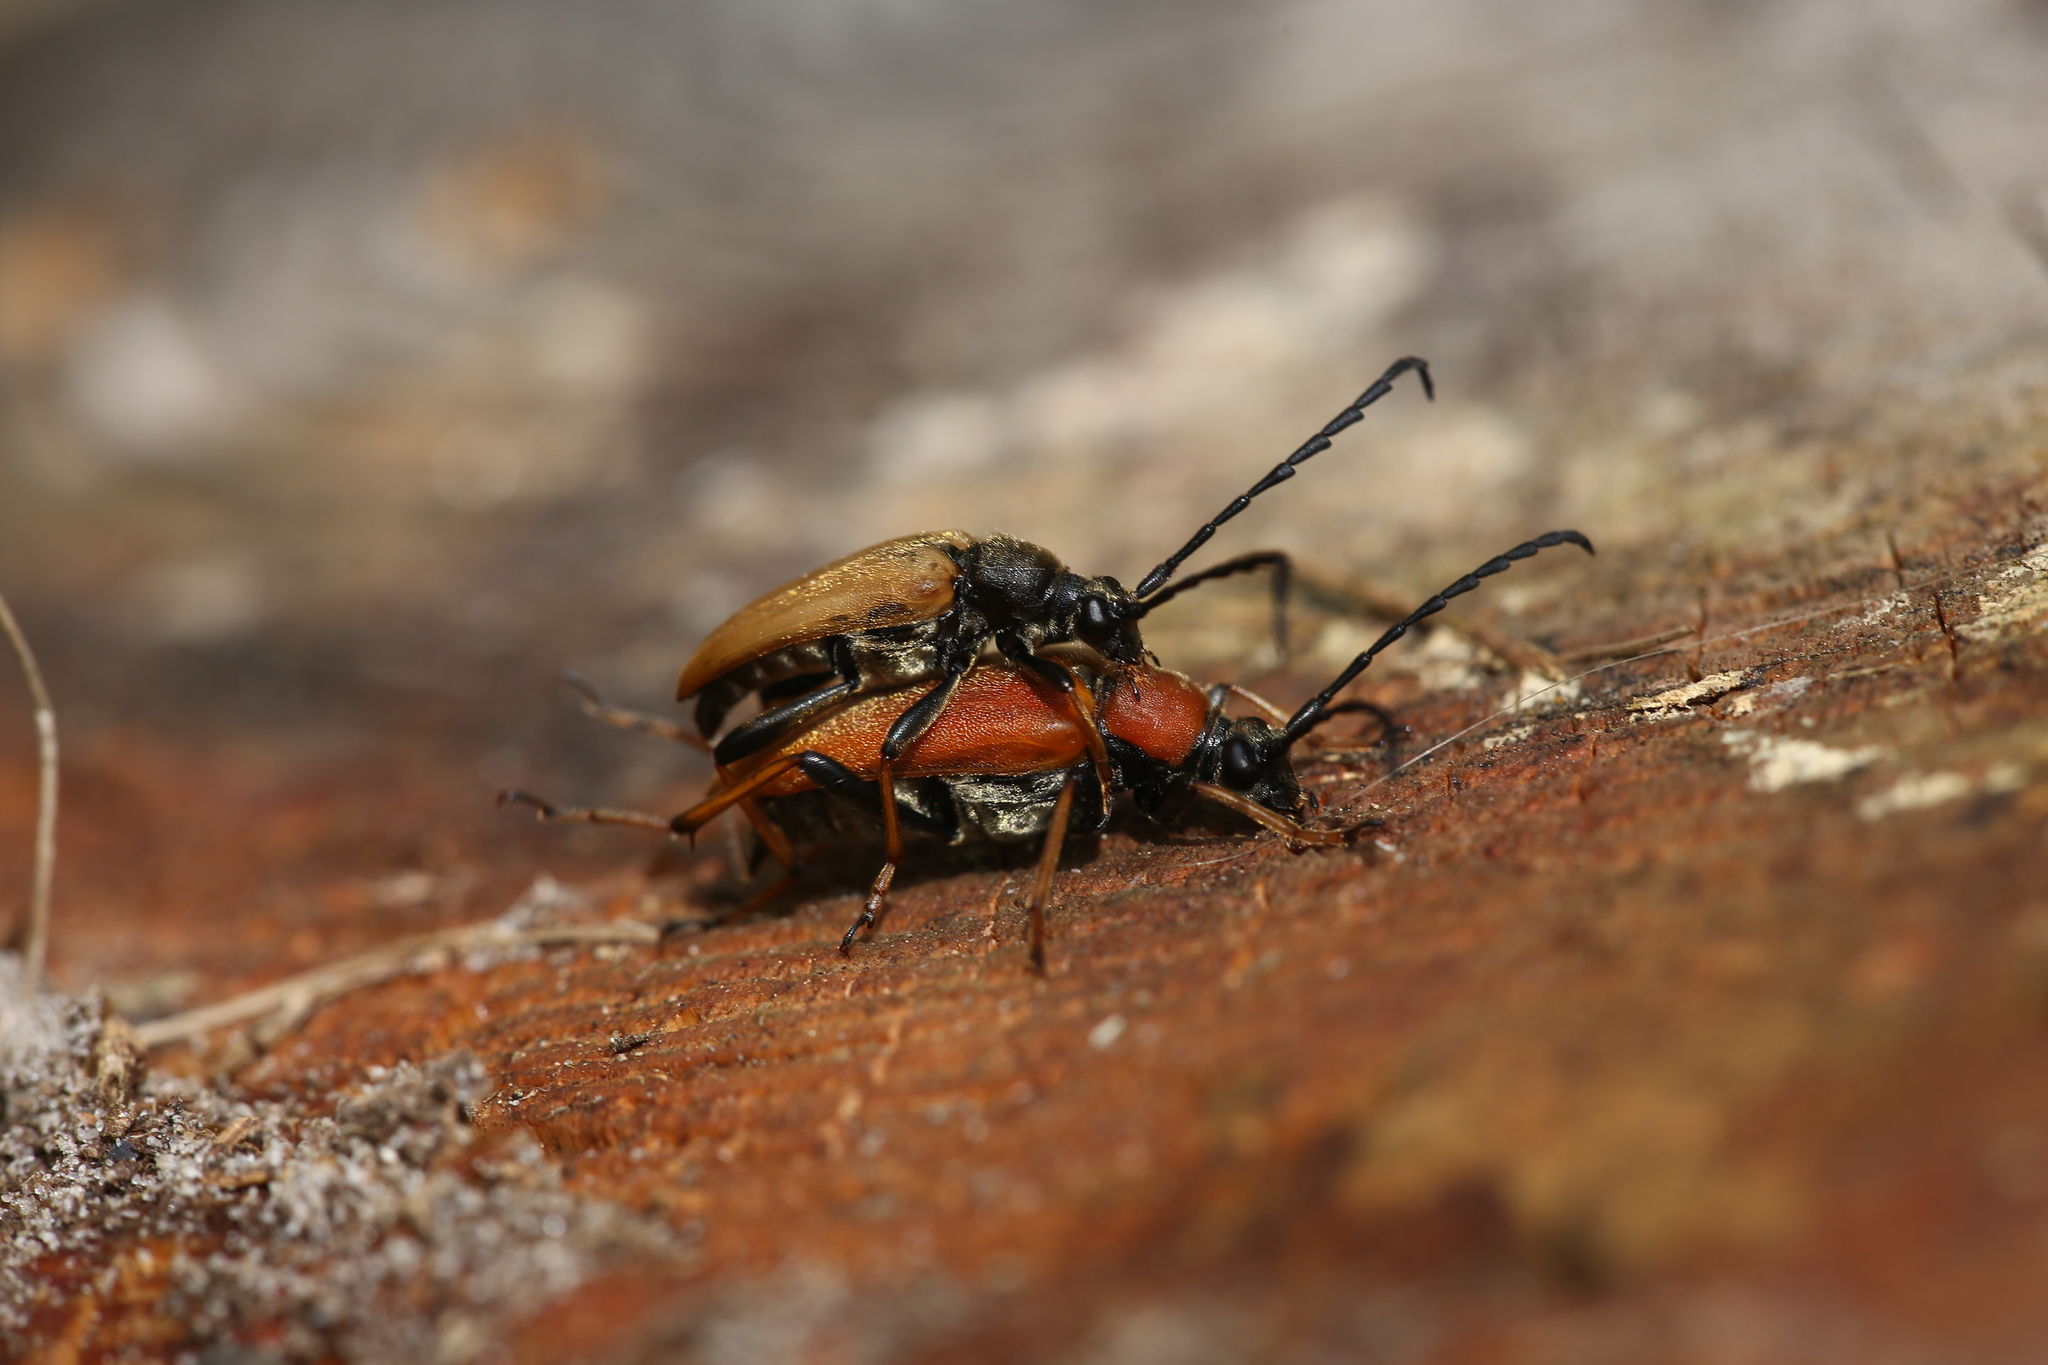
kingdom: Animalia
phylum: Arthropoda
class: Insecta
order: Coleoptera
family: Cerambycidae
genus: Stictoleptura
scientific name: Stictoleptura rubra
